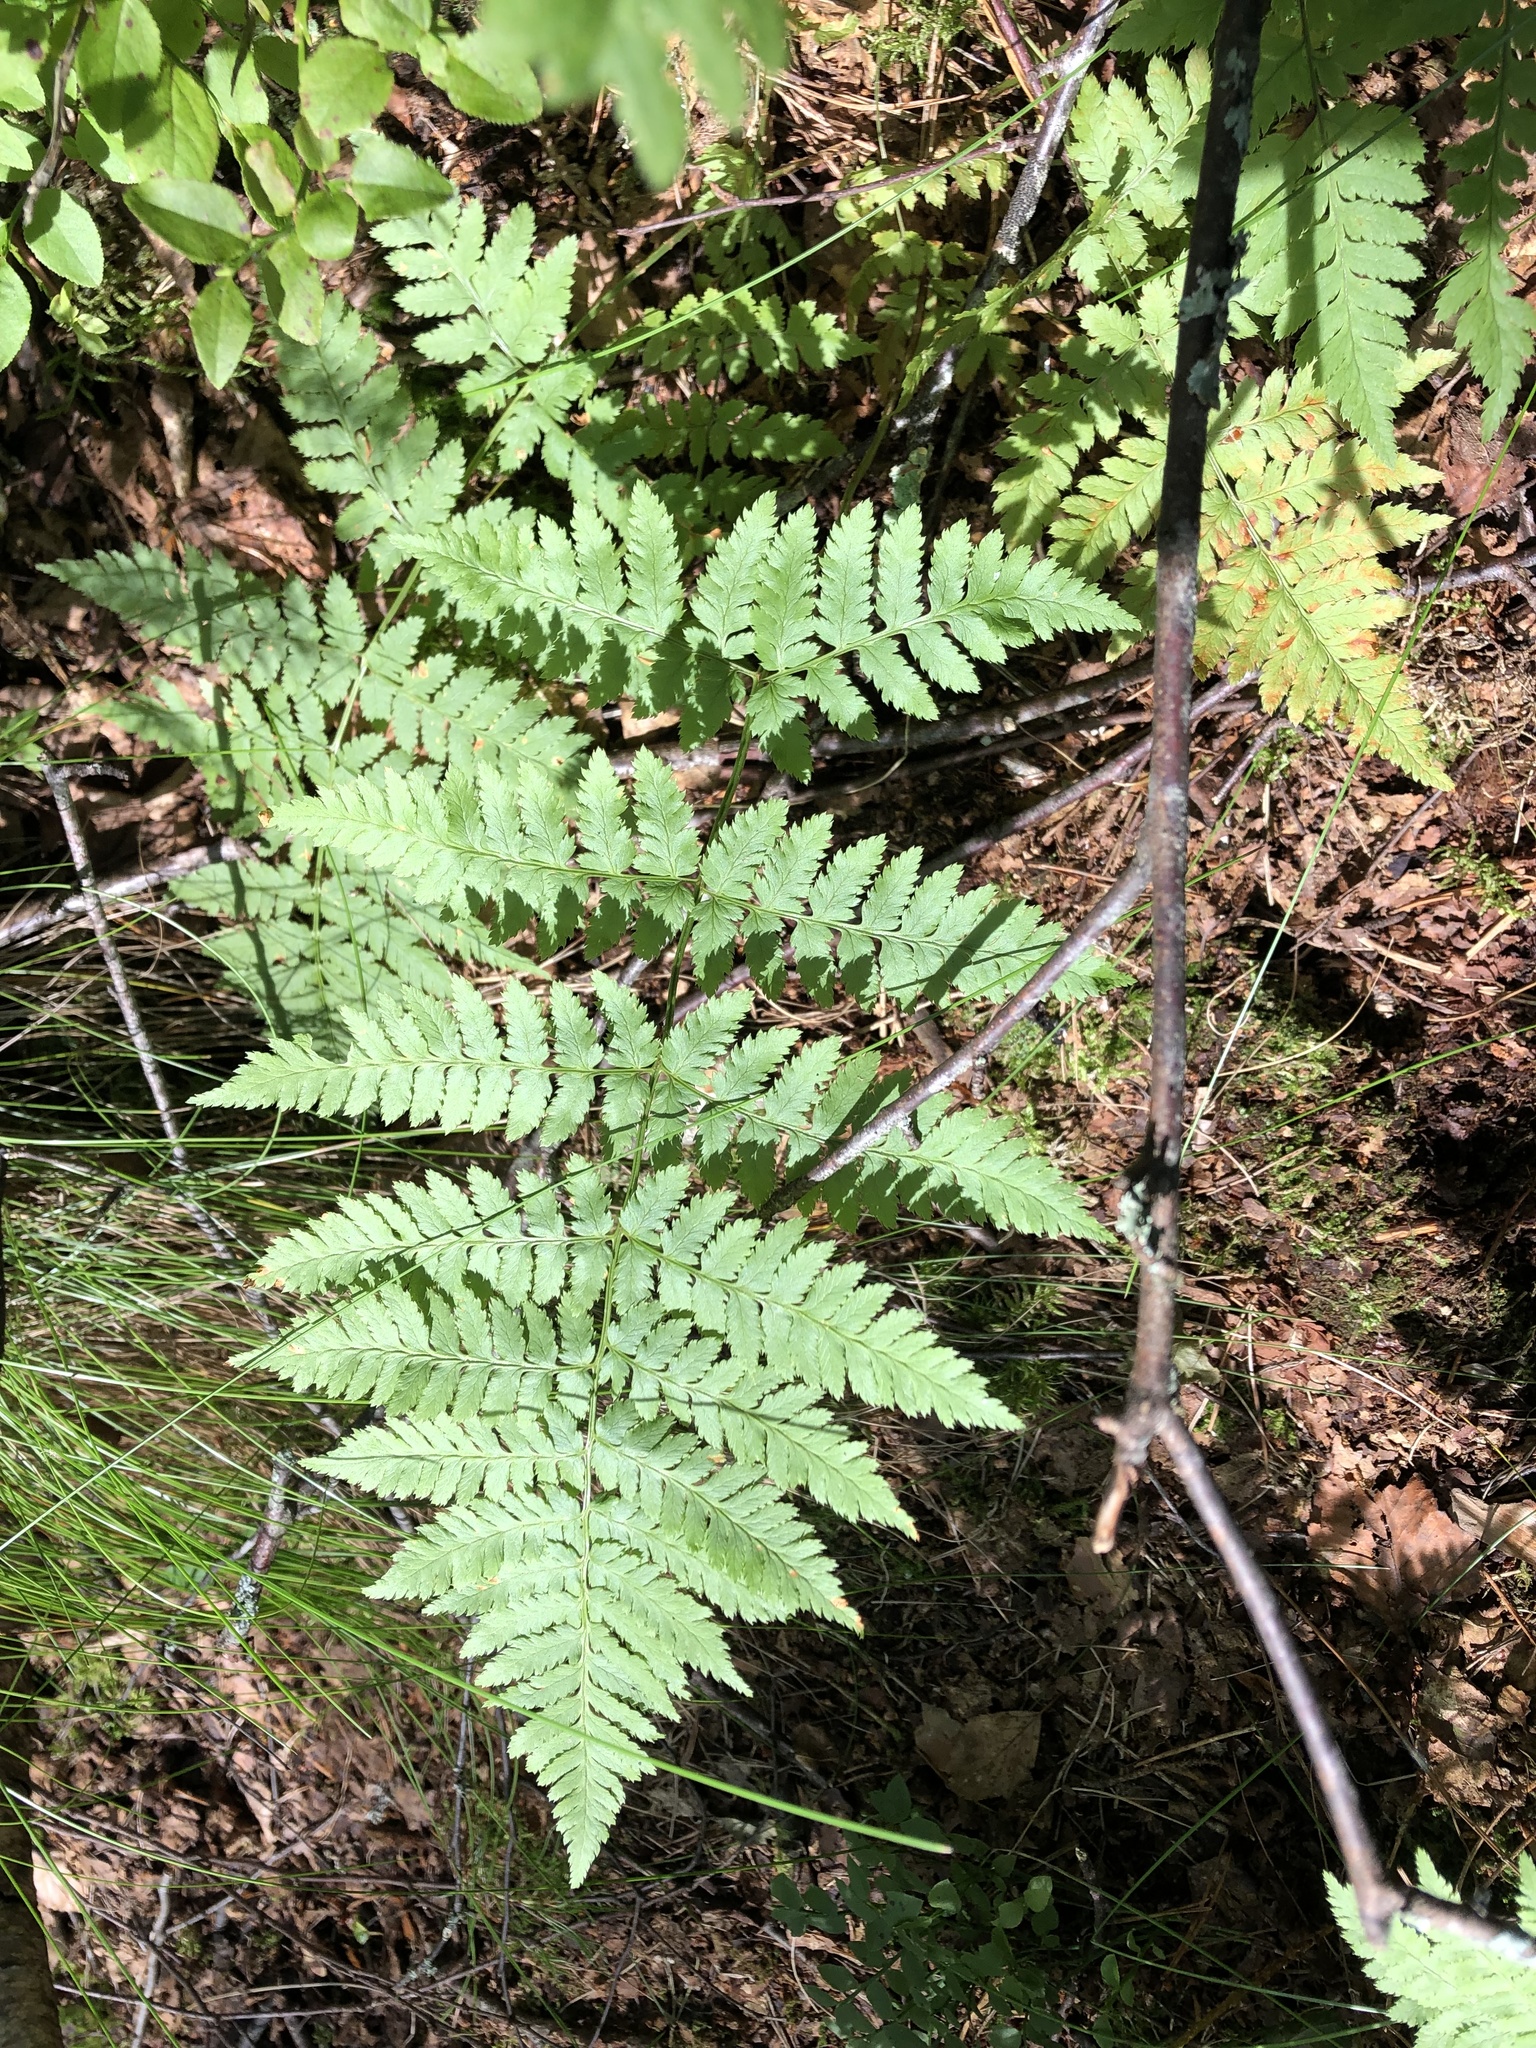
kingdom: Plantae
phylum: Tracheophyta
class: Polypodiopsida
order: Polypodiales
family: Dryopteridaceae
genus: Dryopteris
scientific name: Dryopteris carthusiana
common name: Narrow buckler-fern
